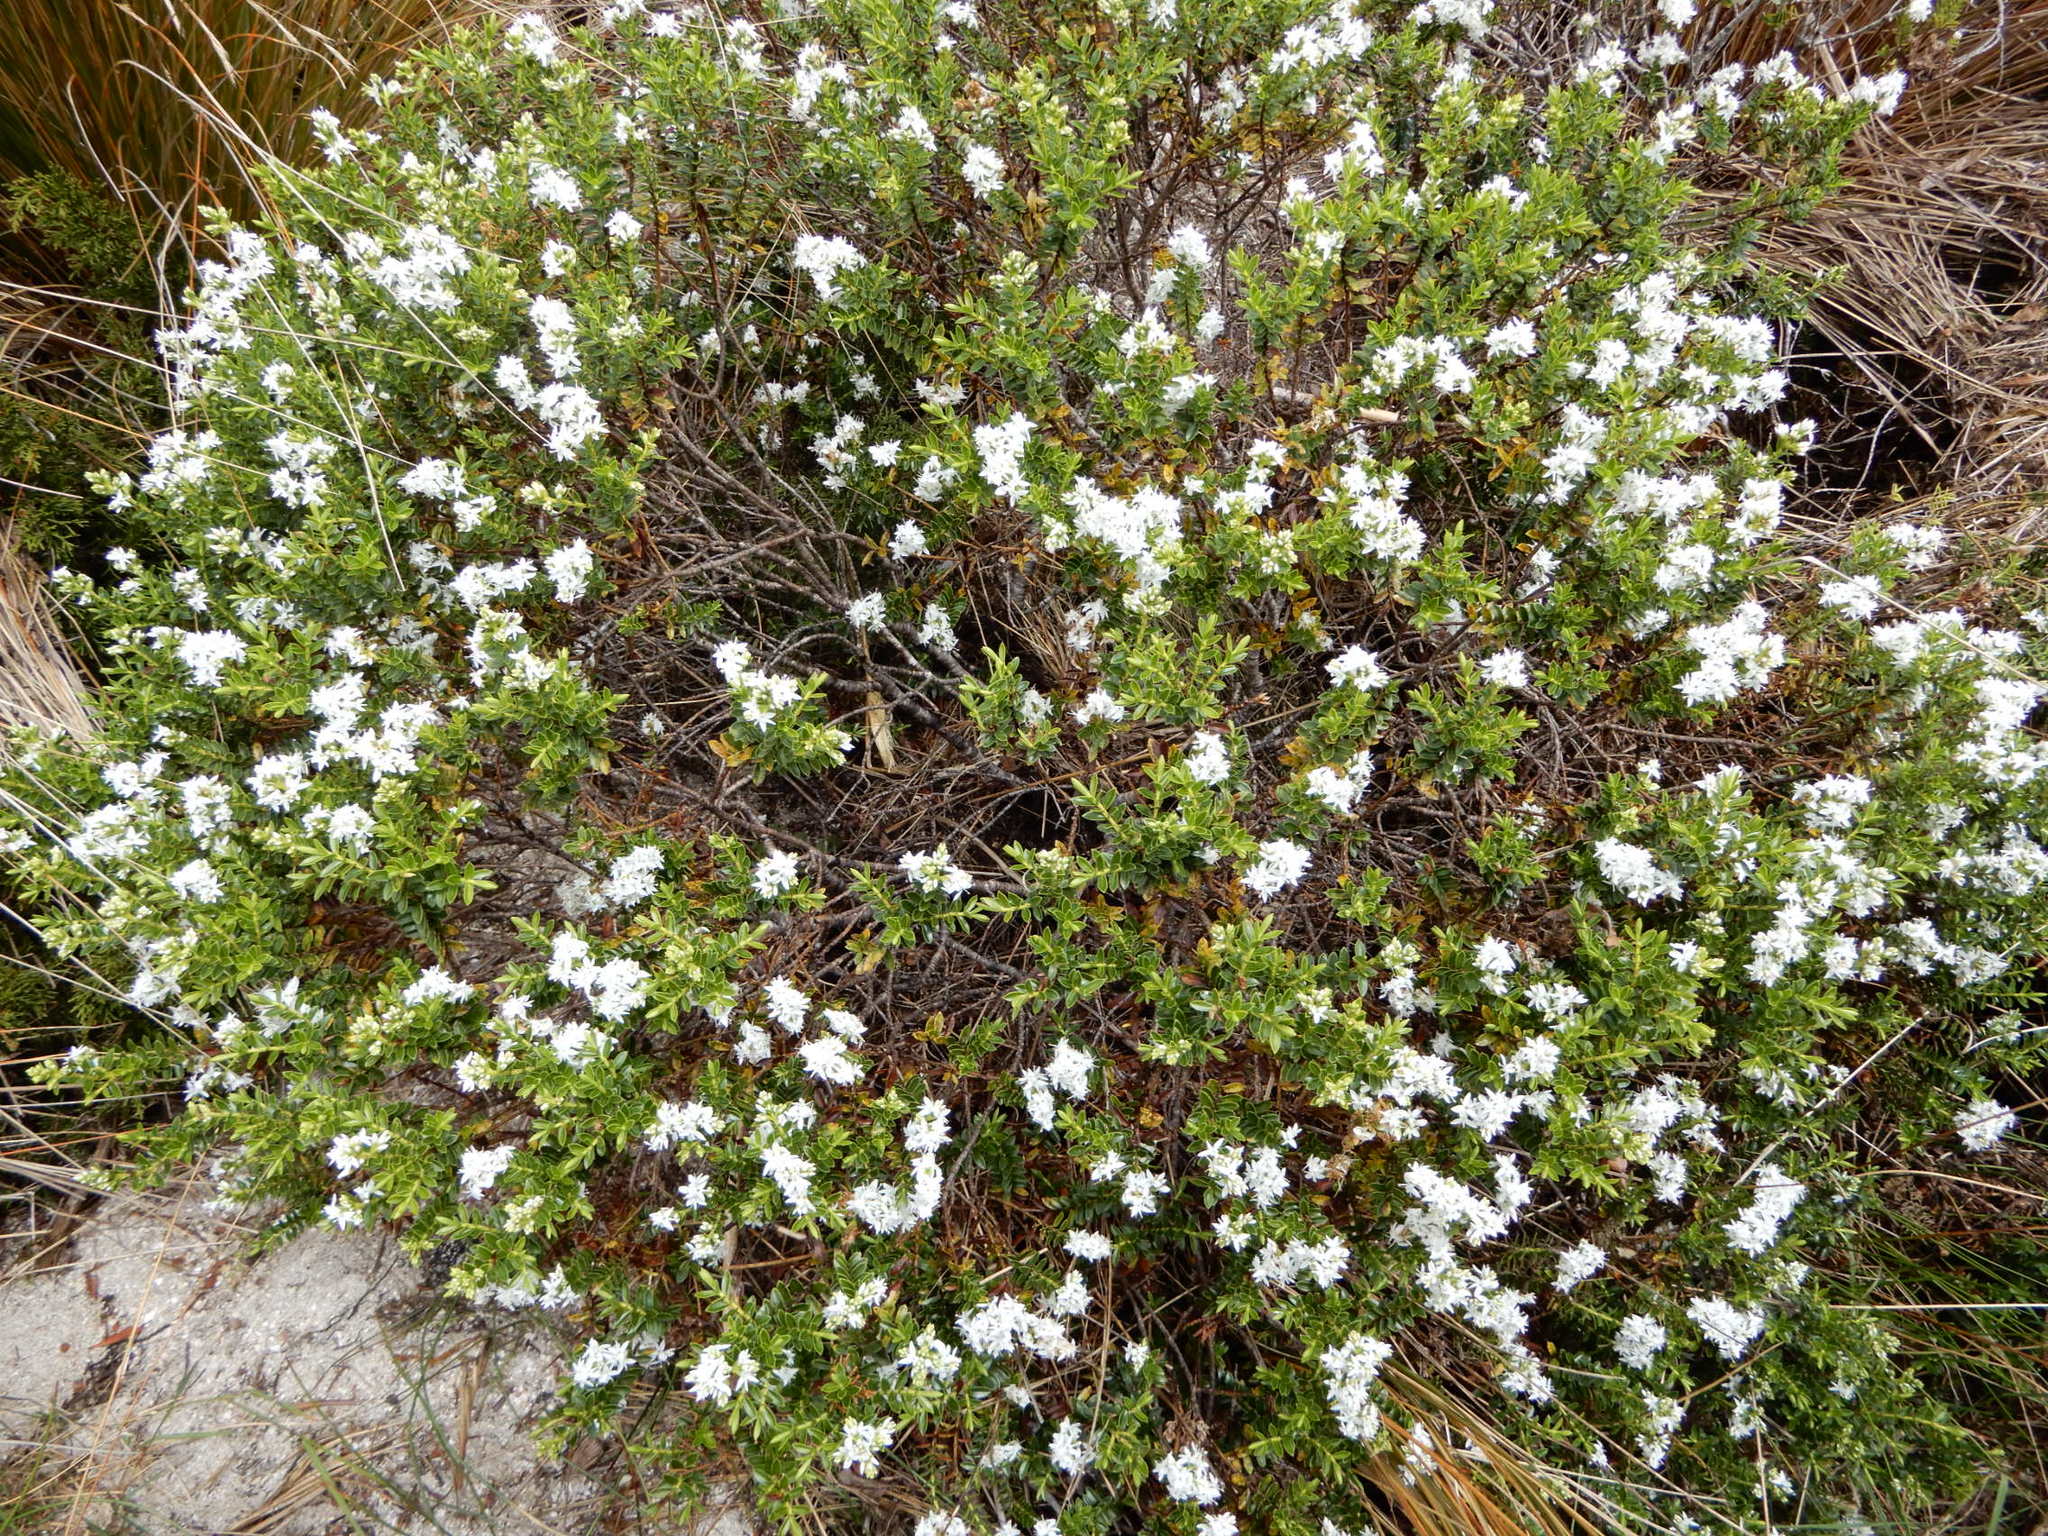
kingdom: Plantae
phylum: Tracheophyta
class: Magnoliopsida
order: Lamiales
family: Plantaginaceae
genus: Veronica
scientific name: Veronica odora
